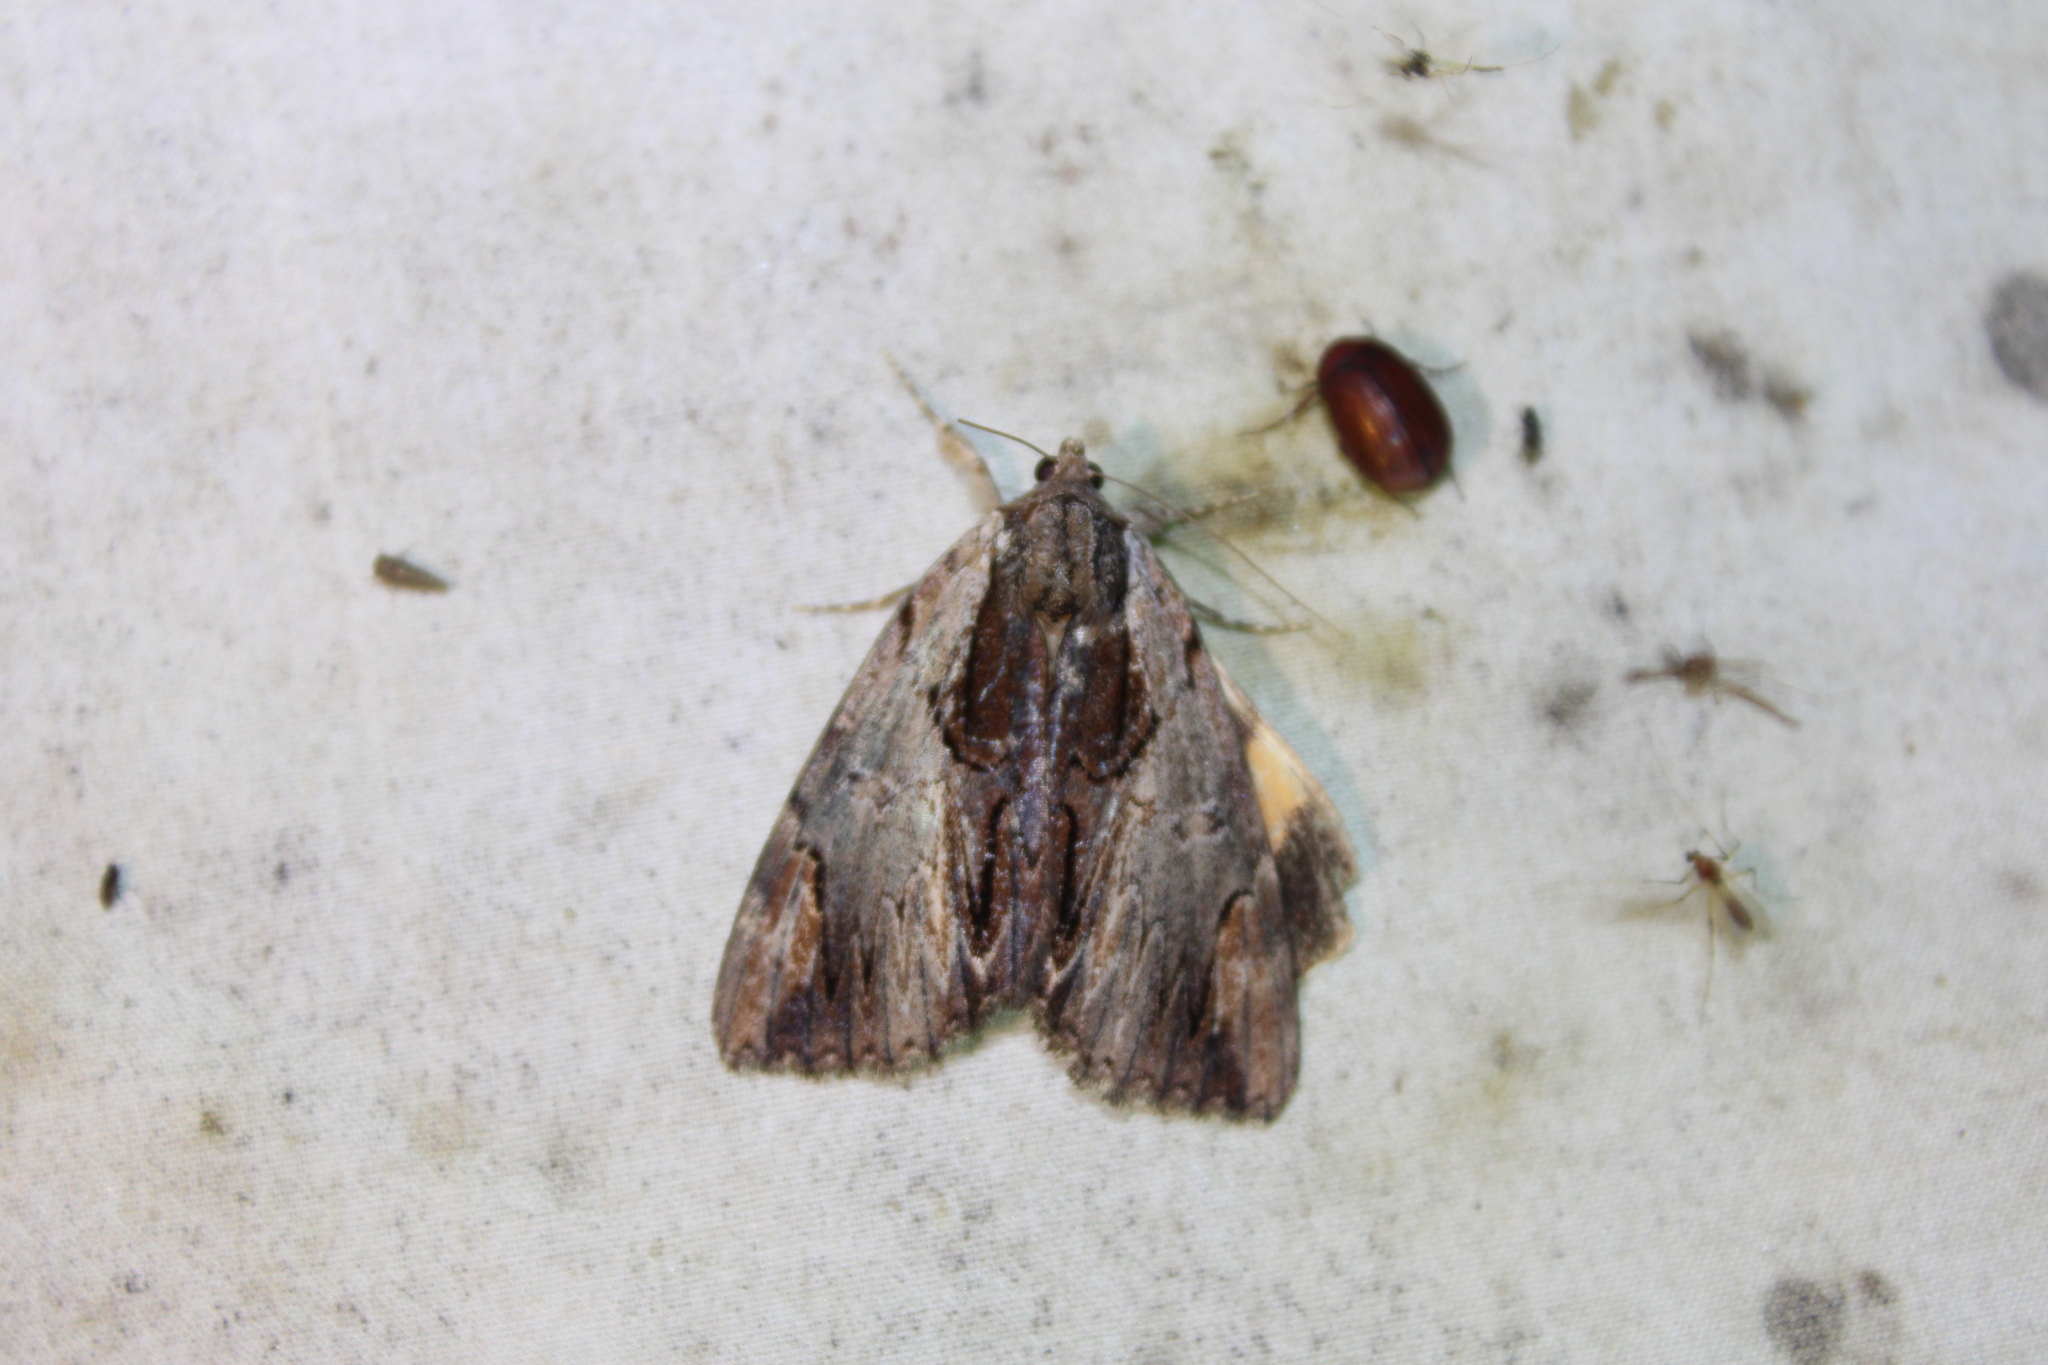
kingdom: Animalia
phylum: Arthropoda
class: Insecta
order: Lepidoptera
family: Erebidae
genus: Catocala
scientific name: Catocala ultronia
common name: Ultronia underwing
